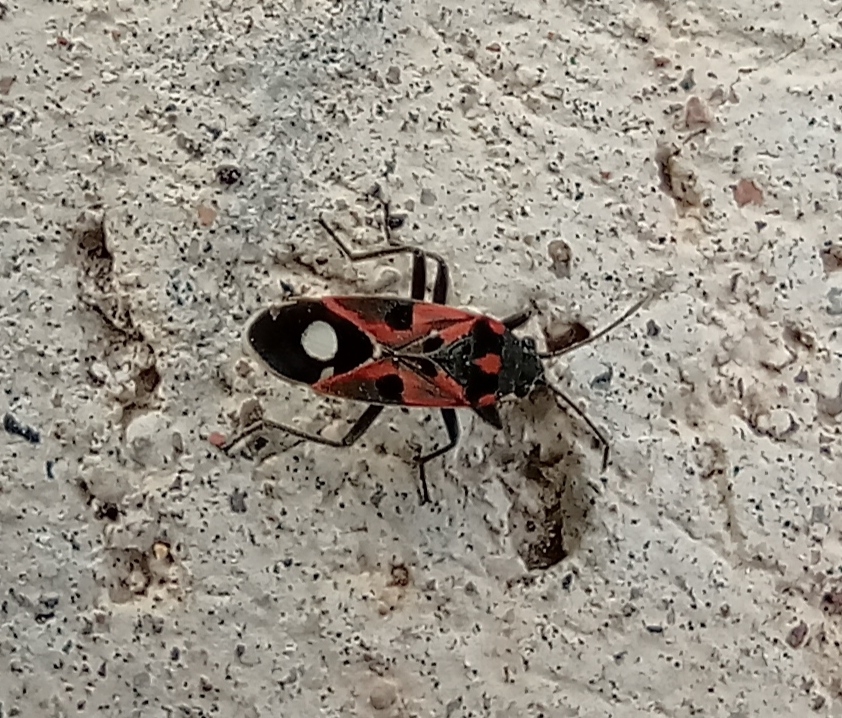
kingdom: Animalia
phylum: Arthropoda
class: Insecta
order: Hemiptera
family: Lygaeidae
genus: Lygaeus
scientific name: Lygaeus alboornatus
